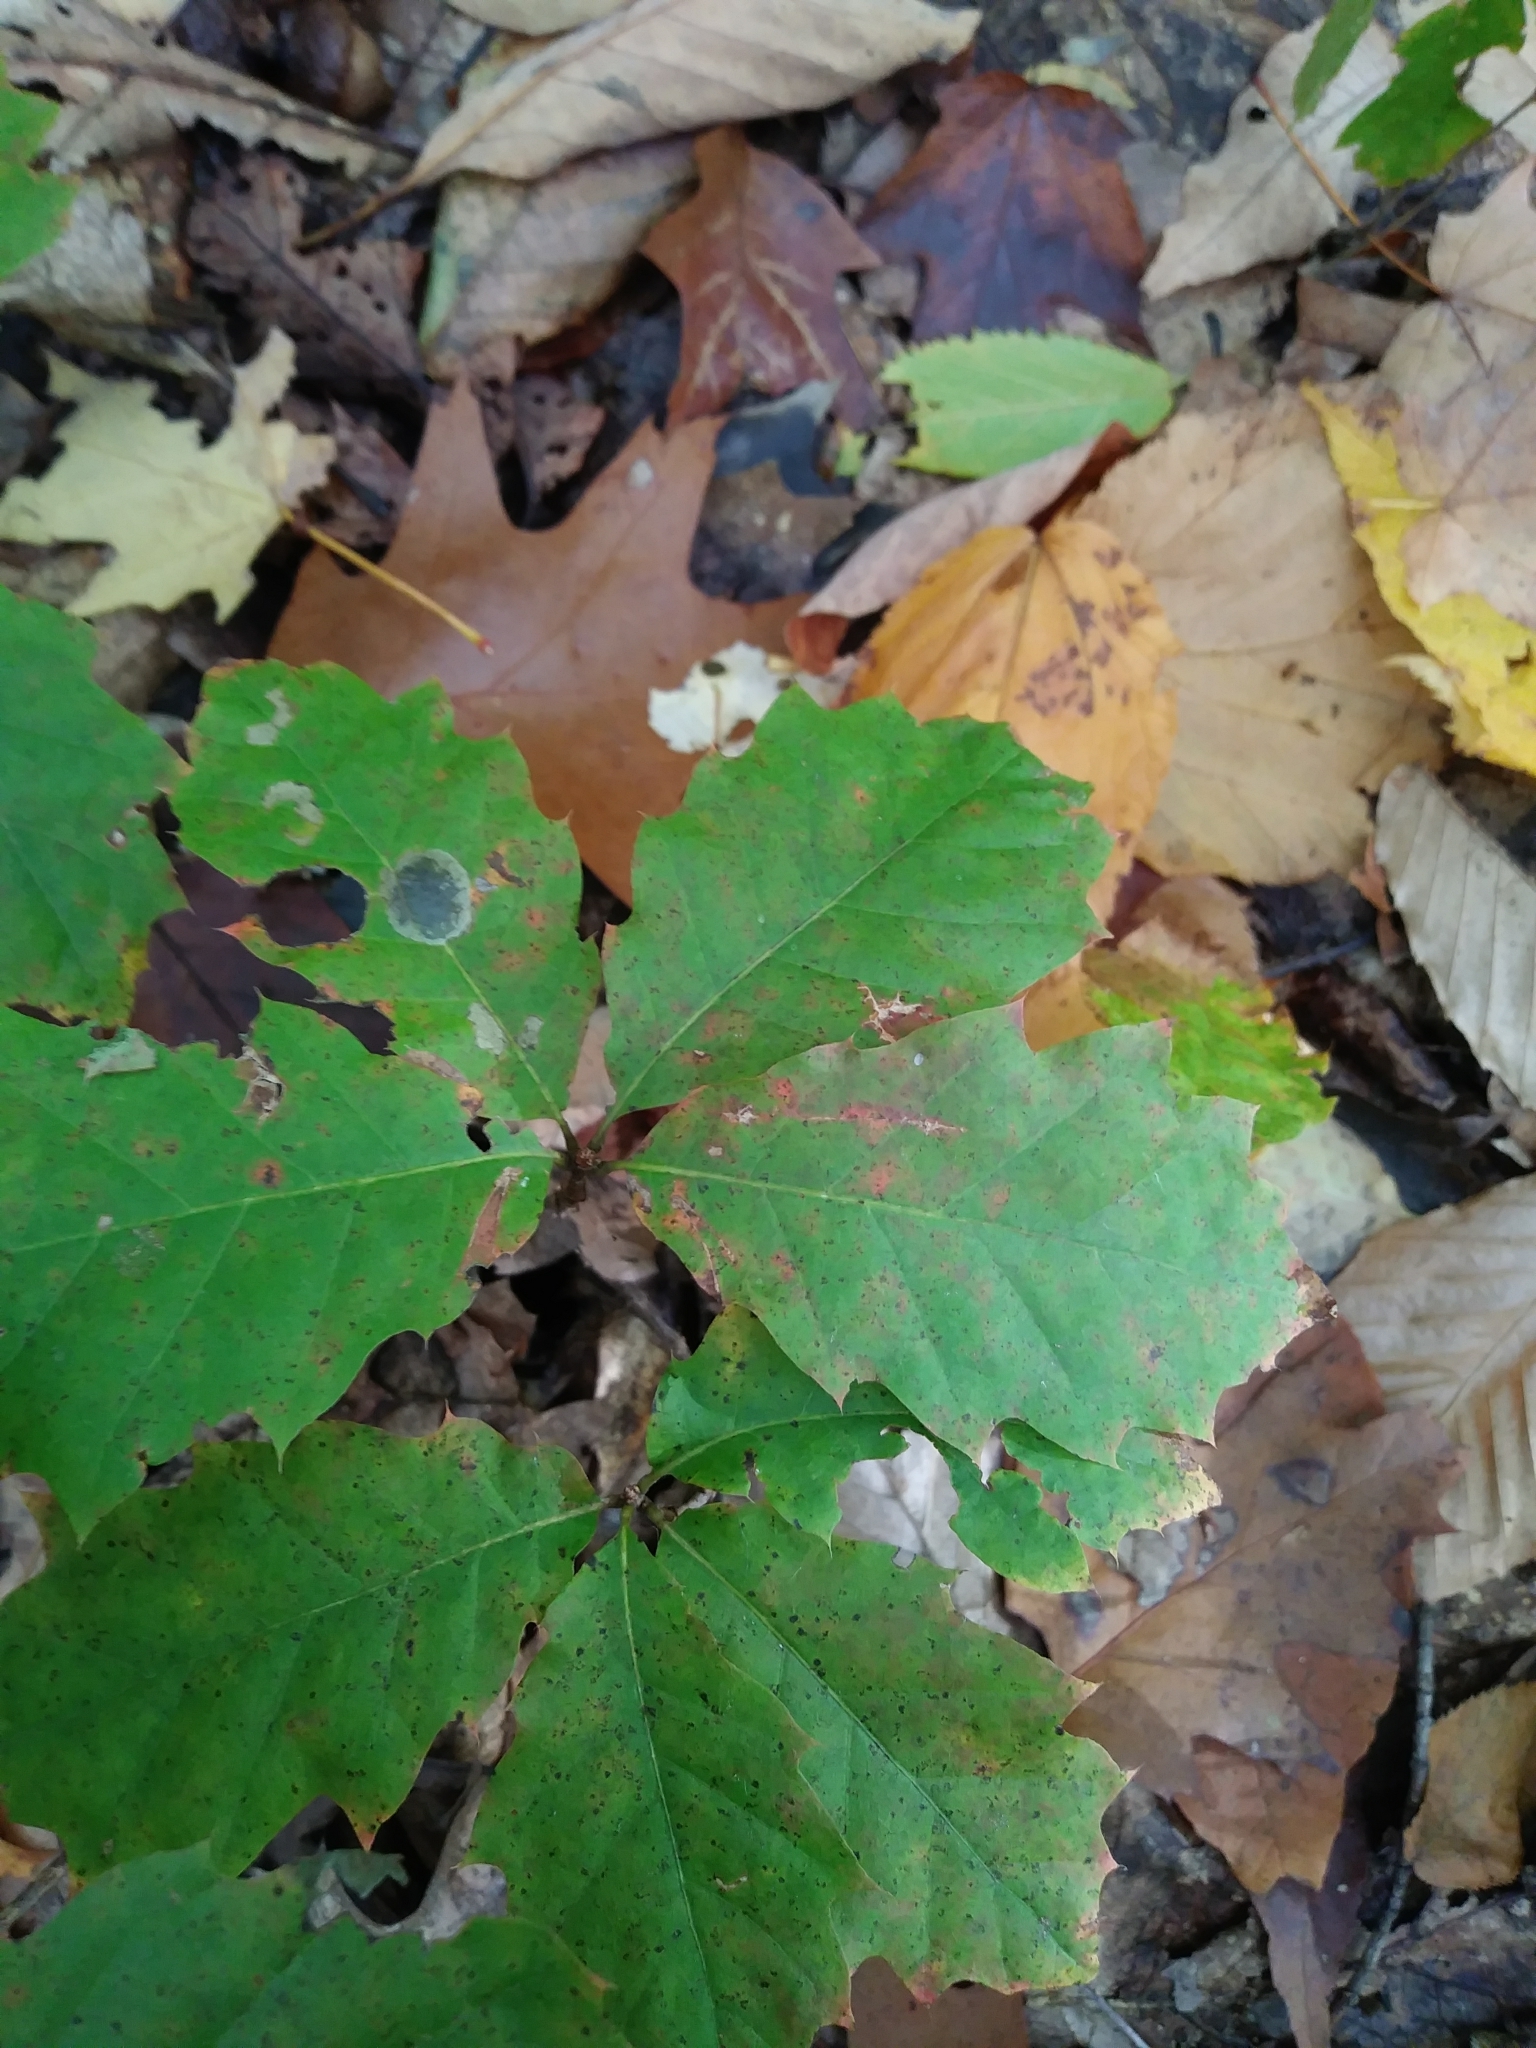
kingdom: Plantae
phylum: Tracheophyta
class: Magnoliopsida
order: Fagales
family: Fagaceae
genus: Quercus
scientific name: Quercus rubra
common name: Red oak
